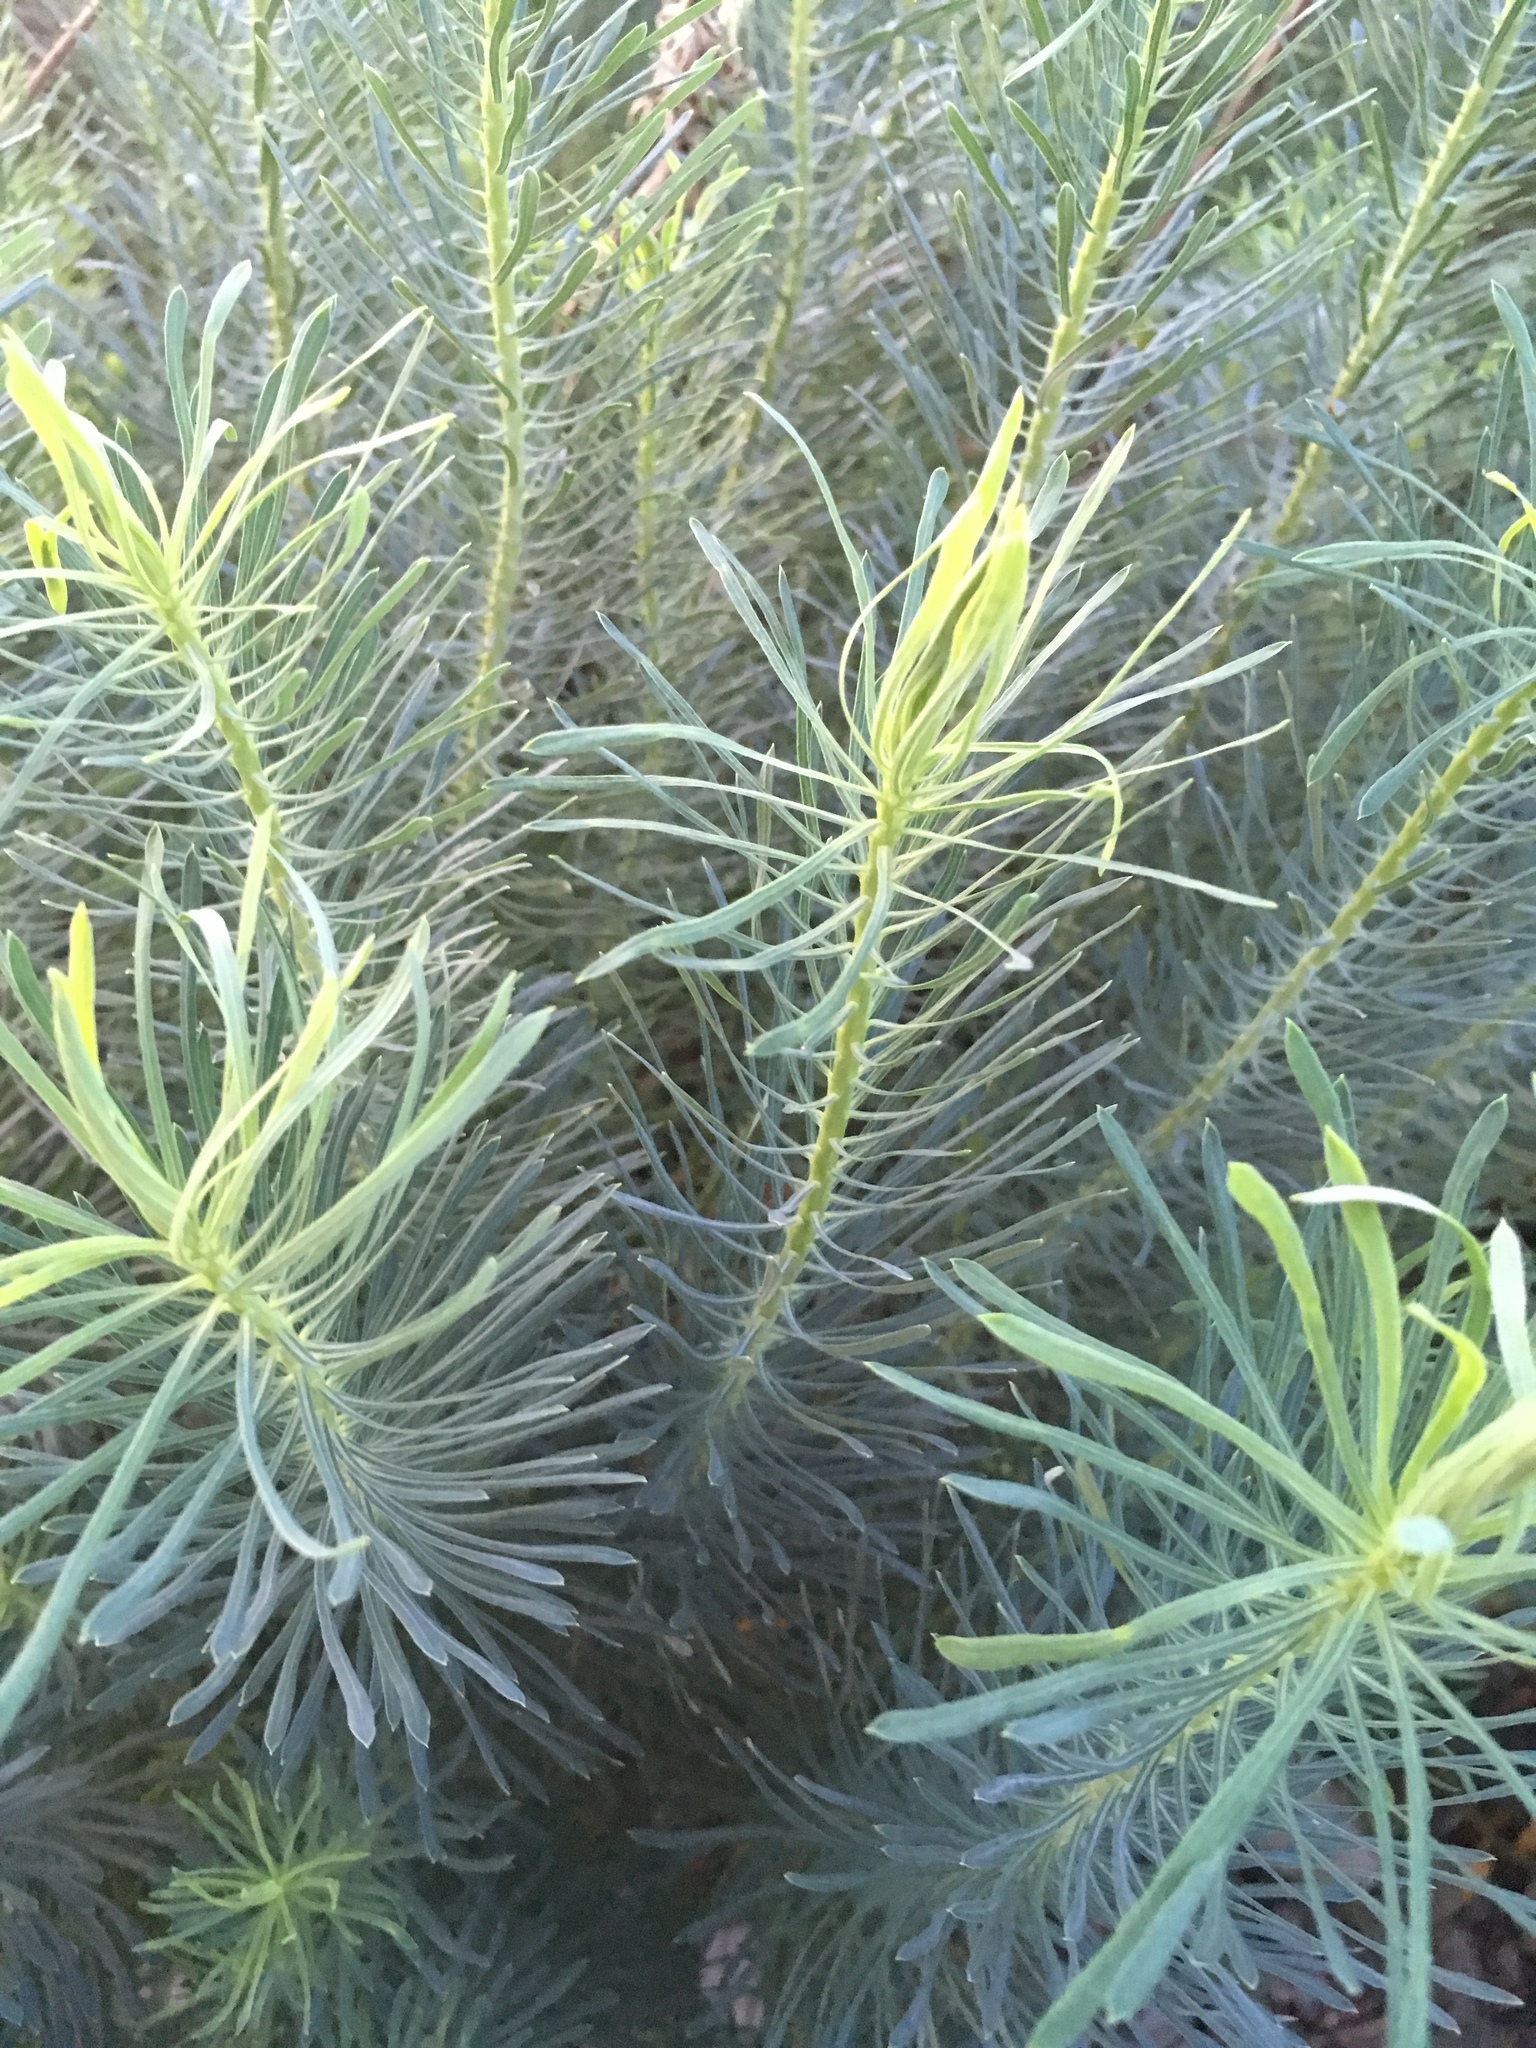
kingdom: Plantae
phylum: Tracheophyta
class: Magnoliopsida
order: Malpighiales
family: Euphorbiaceae
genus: Euphorbia
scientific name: Euphorbia cyparissias
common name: Cypress spurge
